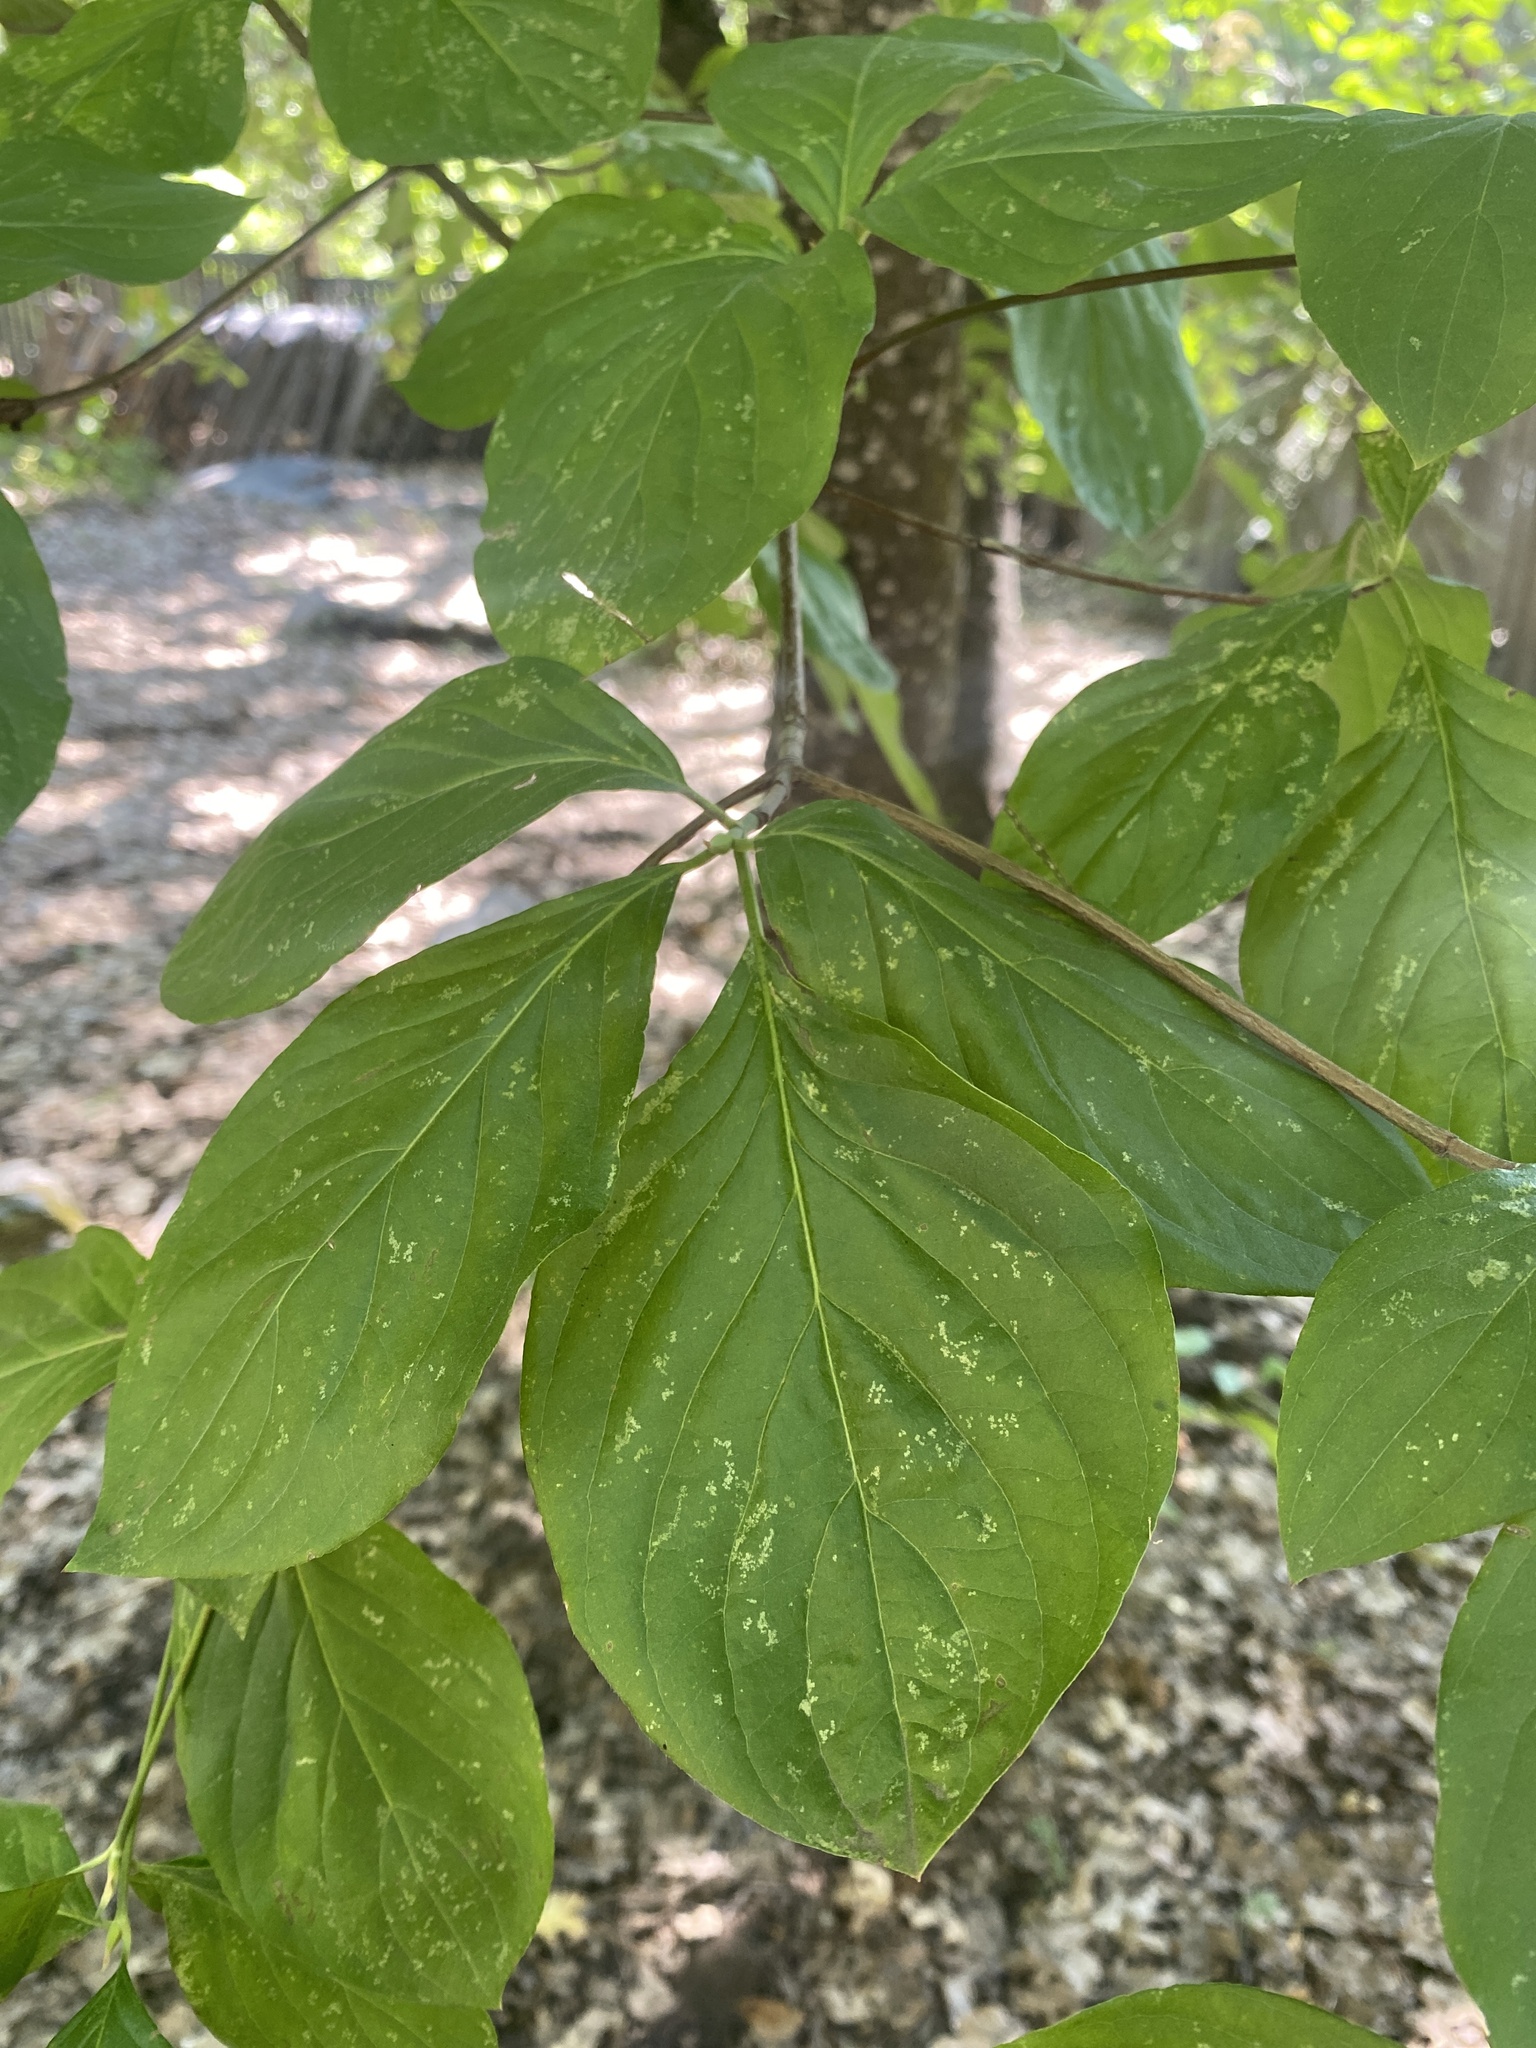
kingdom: Plantae
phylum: Tracheophyta
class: Magnoliopsida
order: Cornales
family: Cornaceae
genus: Cornus
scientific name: Cornus nuttallii
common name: Pacific dogwood
